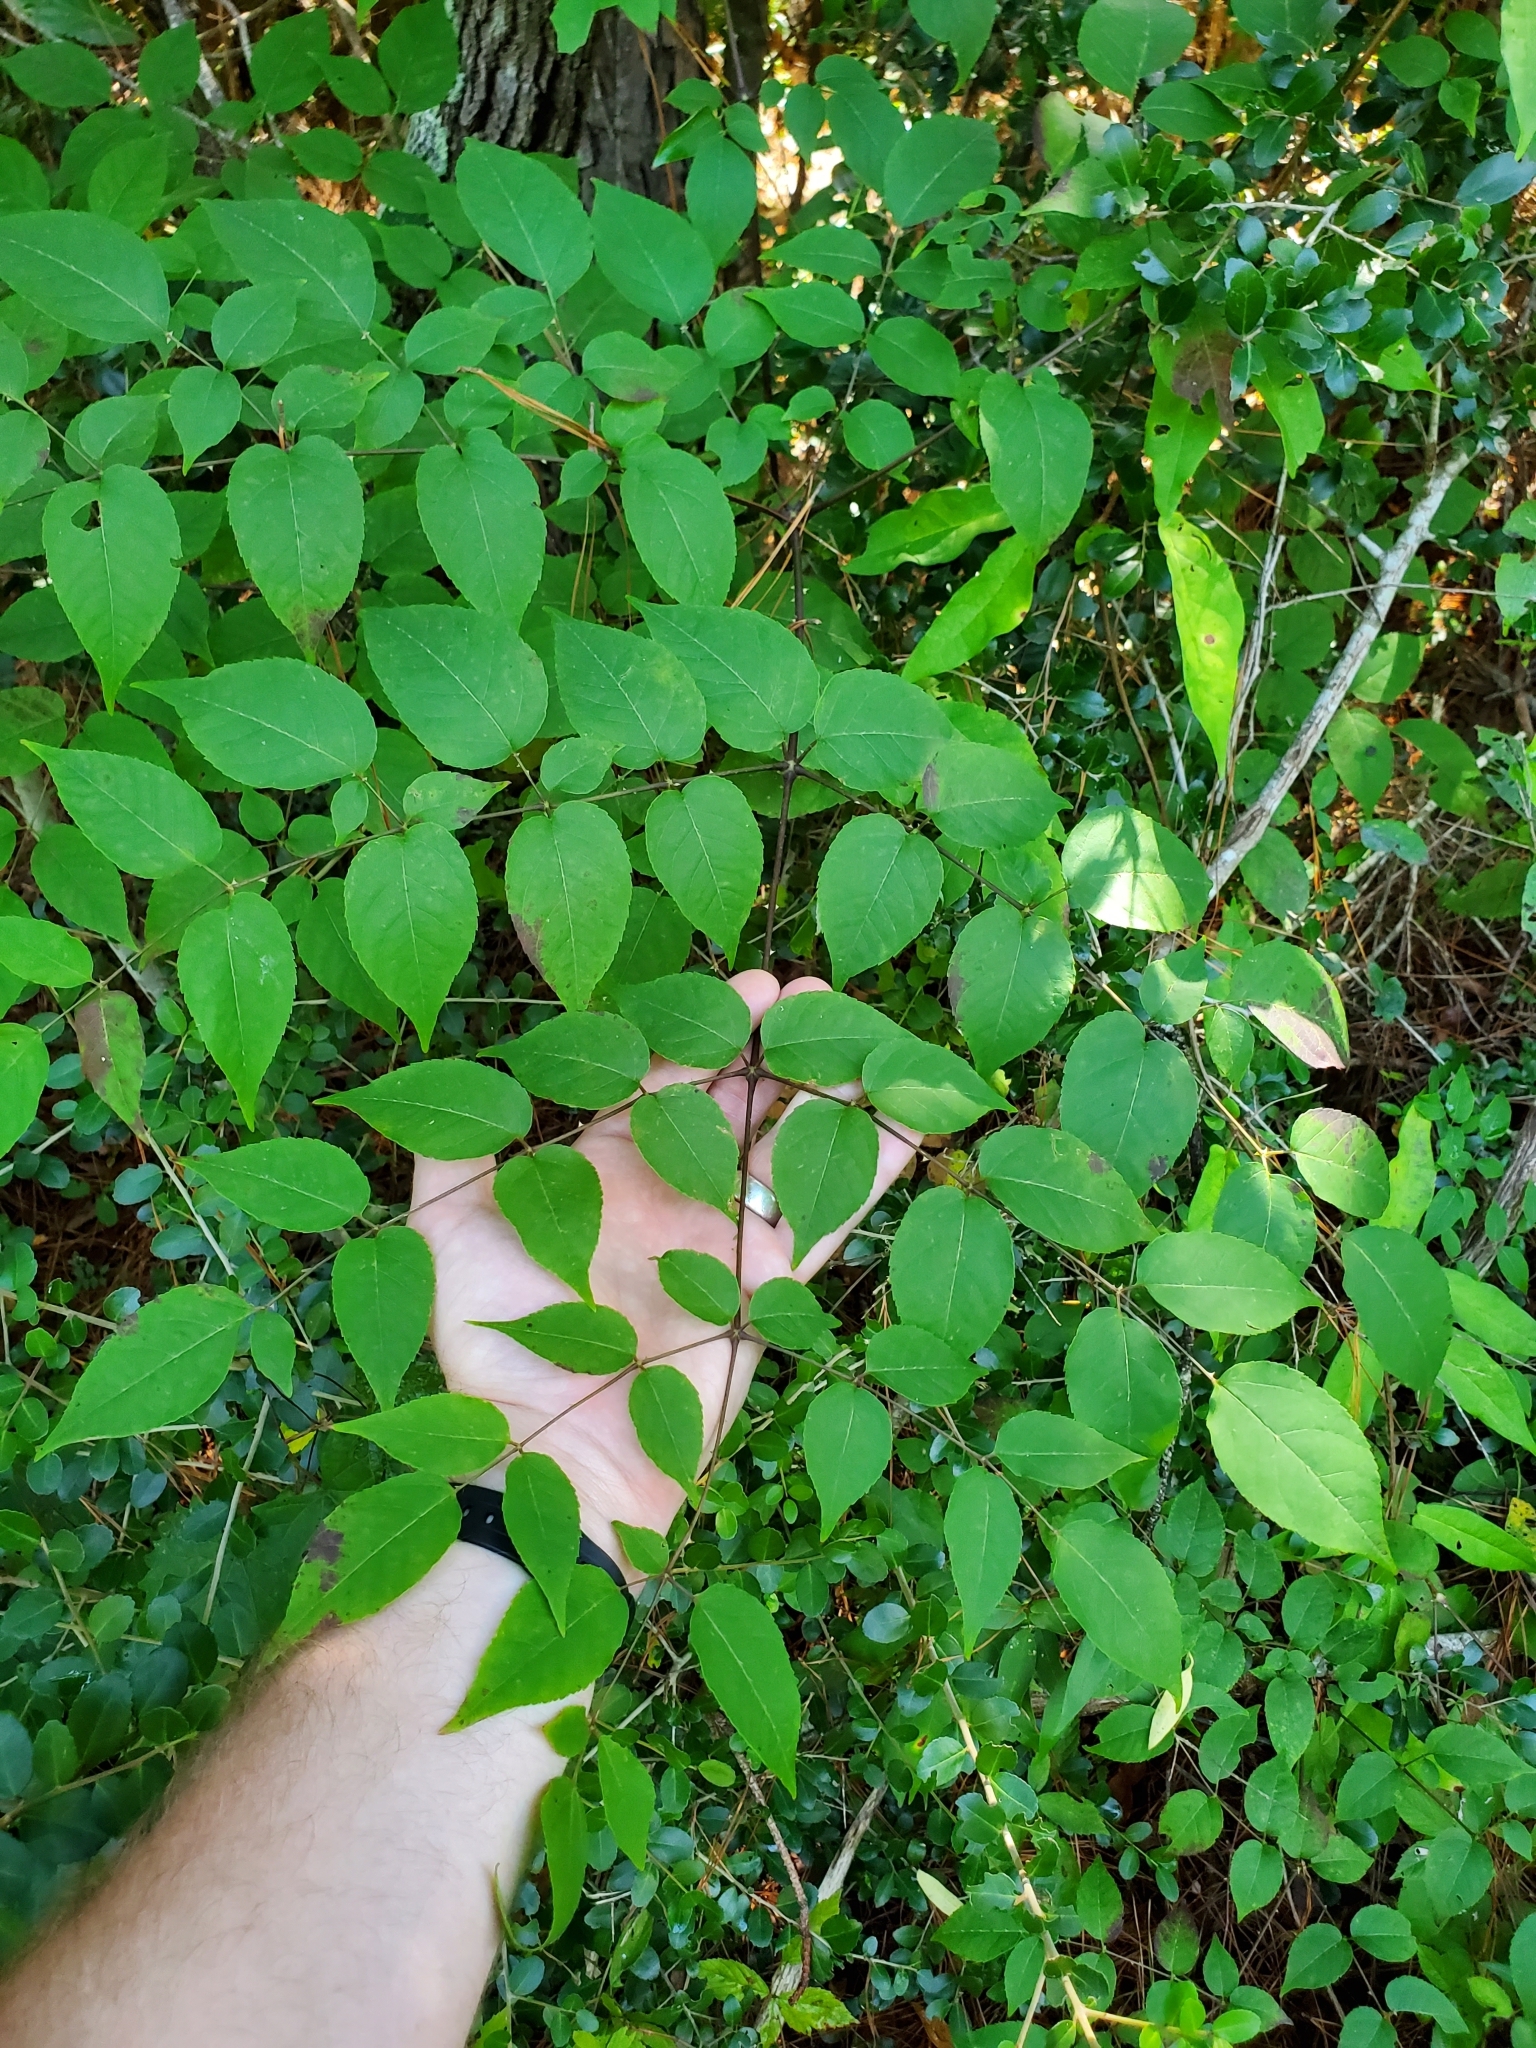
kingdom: Plantae
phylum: Tracheophyta
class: Magnoliopsida
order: Apiales
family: Araliaceae
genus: Aralia
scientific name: Aralia spinosa
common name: Hercules'-club
